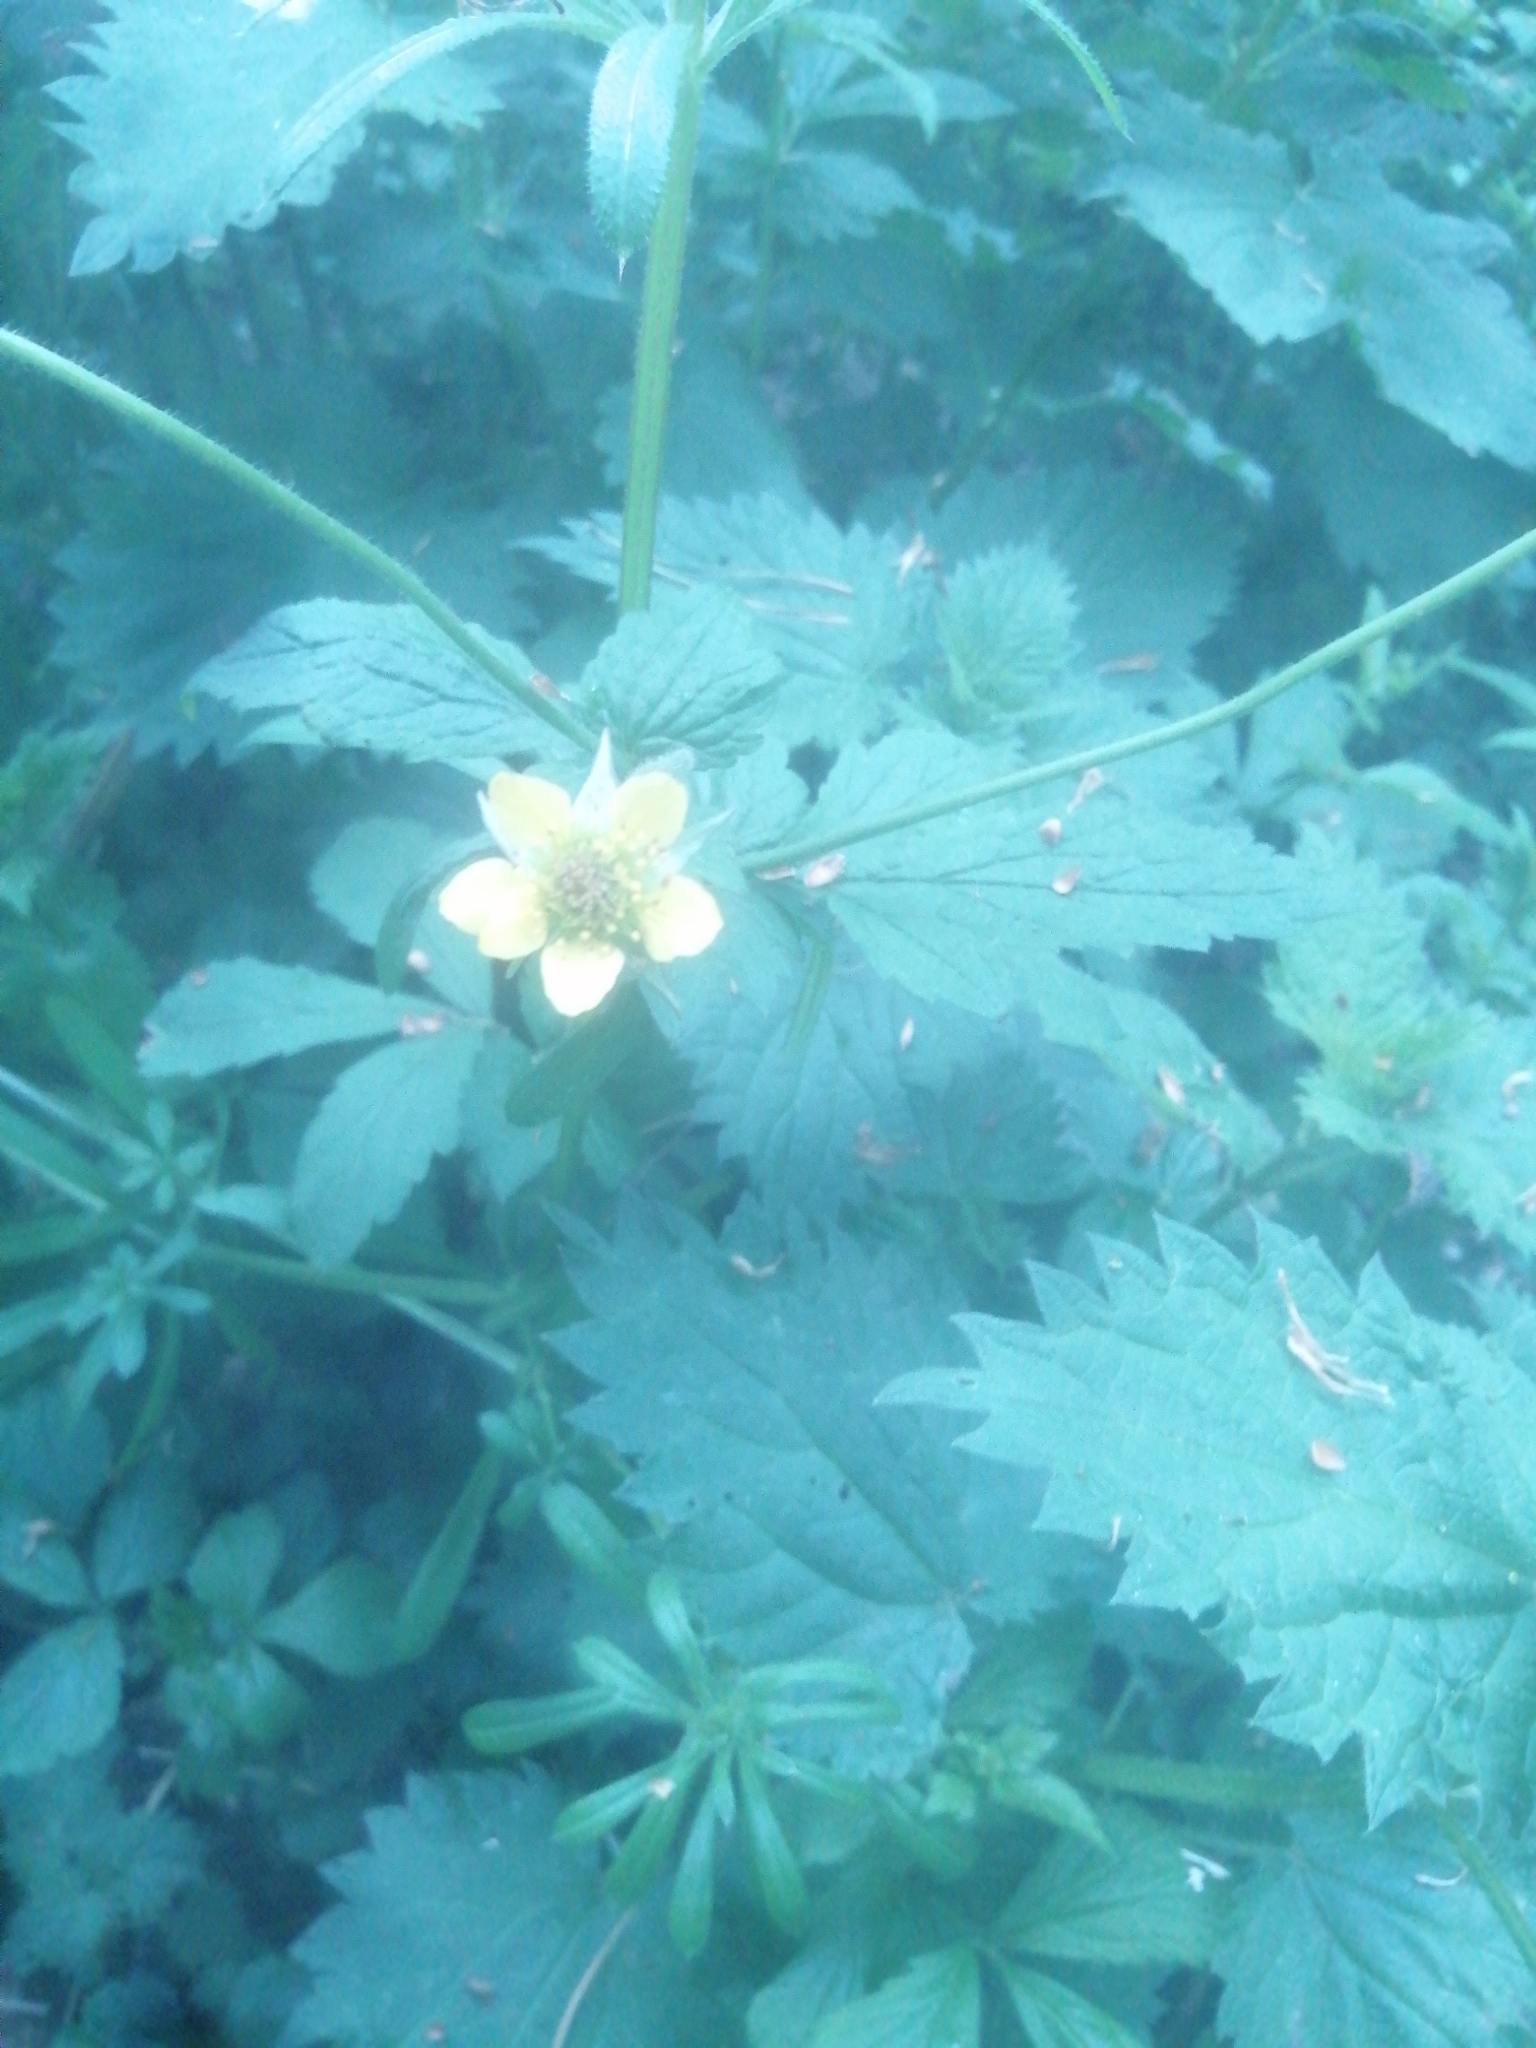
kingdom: Plantae
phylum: Tracheophyta
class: Magnoliopsida
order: Rosales
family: Rosaceae
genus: Geum
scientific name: Geum urbanum
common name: Wood avens
